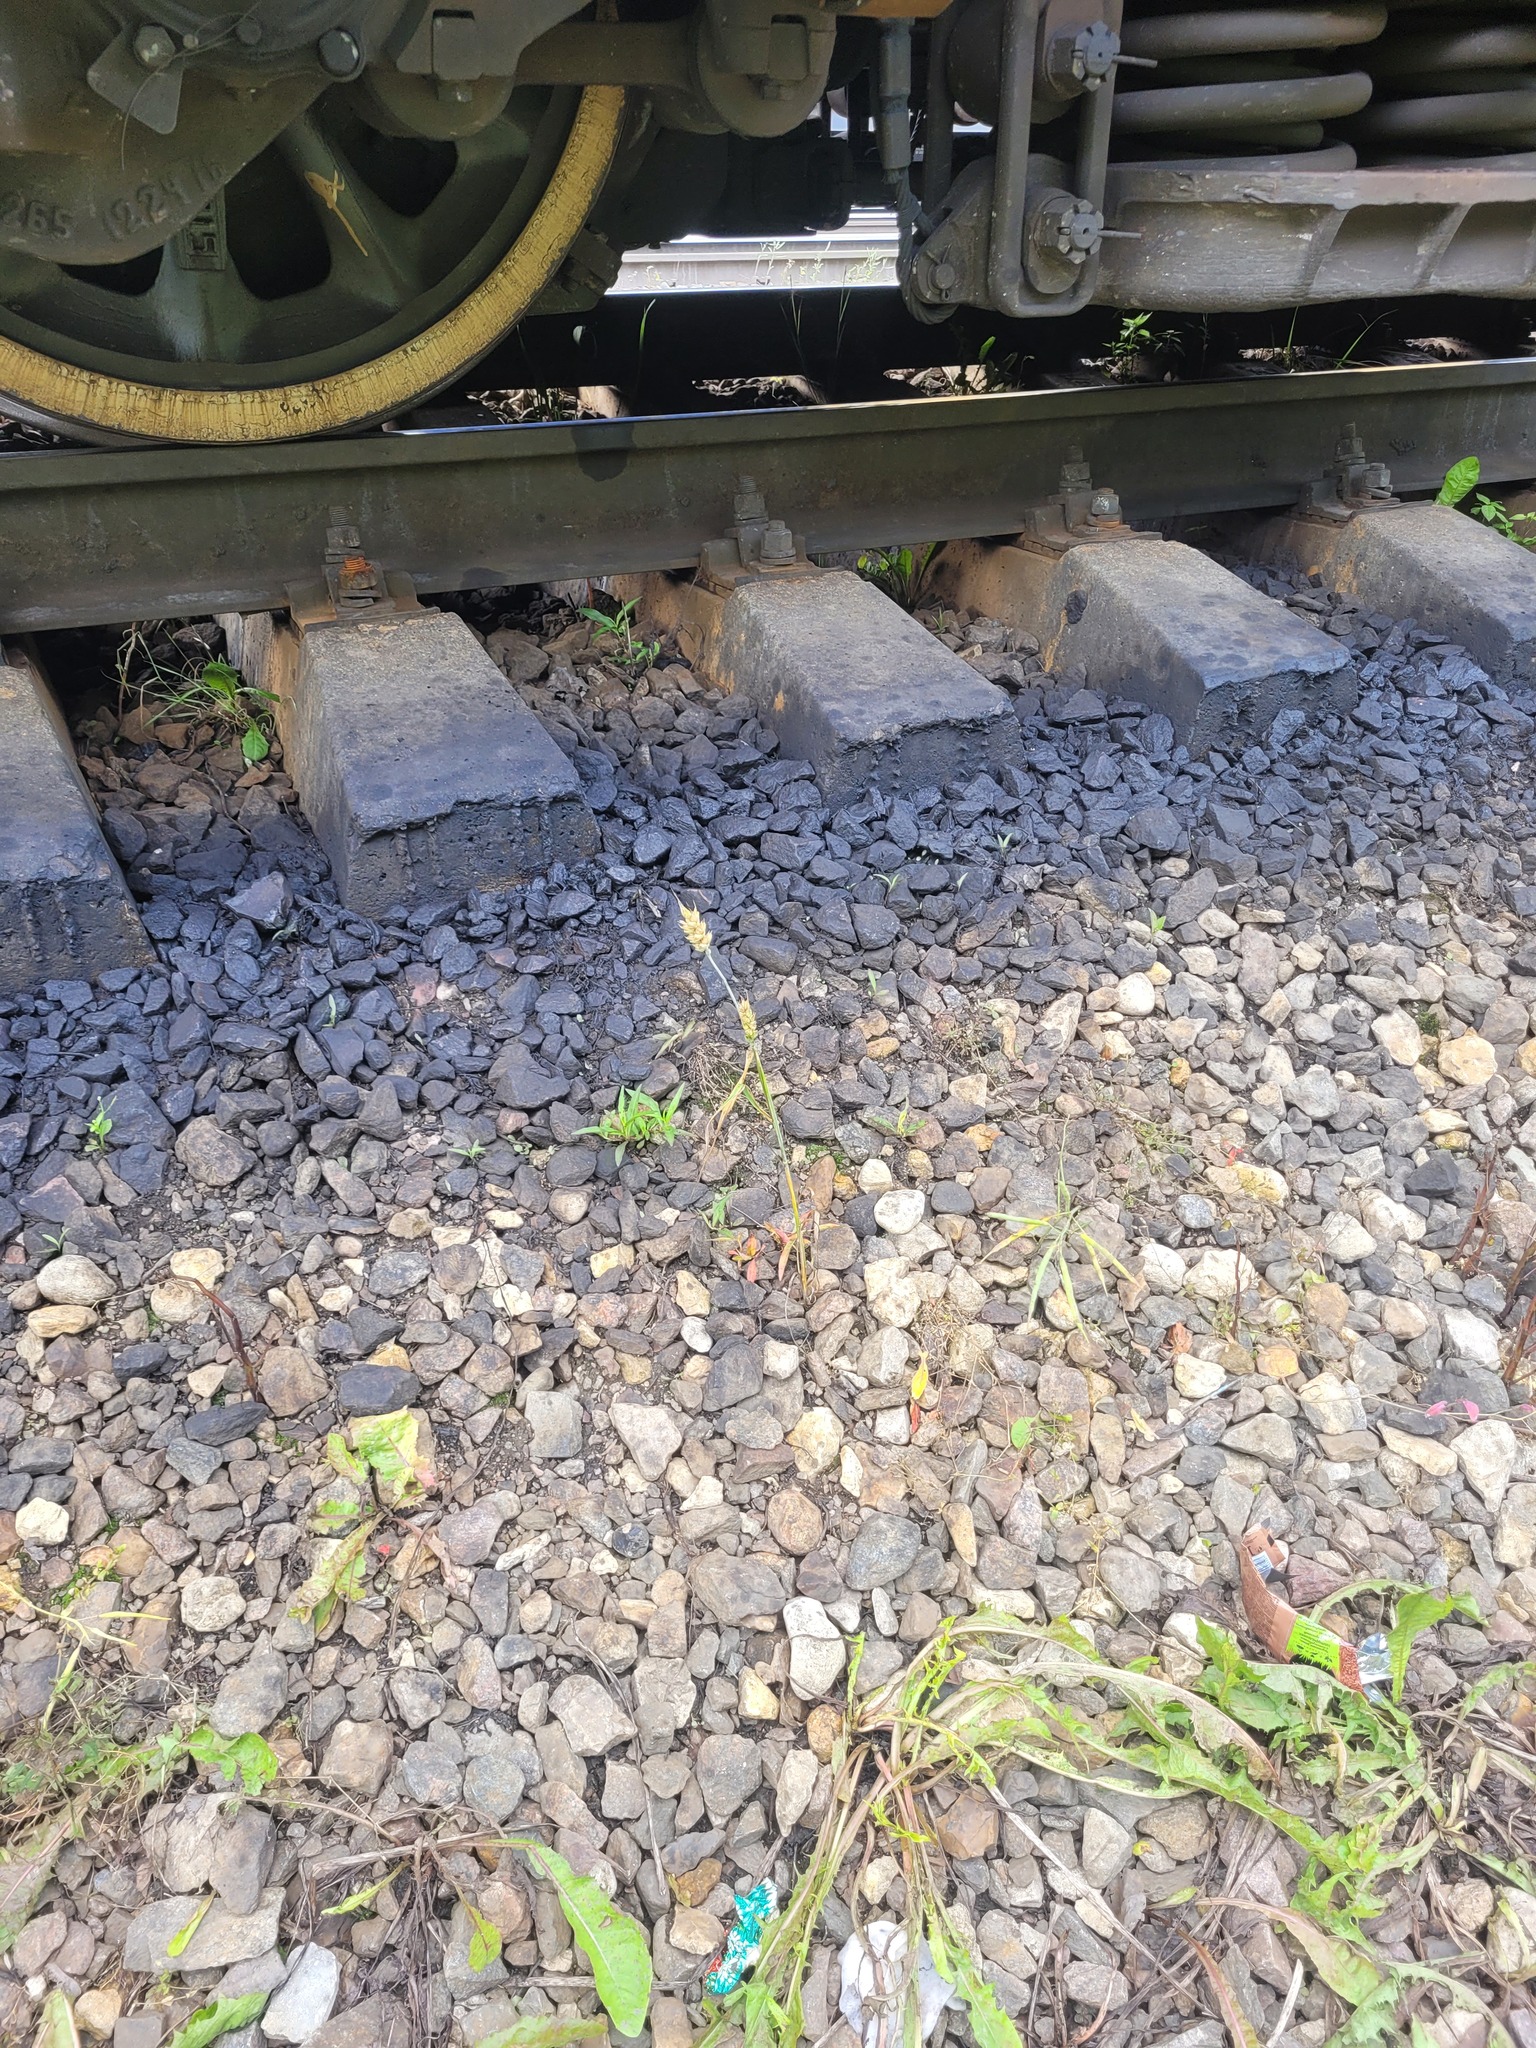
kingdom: Plantae
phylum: Tracheophyta
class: Liliopsida
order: Poales
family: Poaceae
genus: Triticum
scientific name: Triticum aestivum
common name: Common wheat
